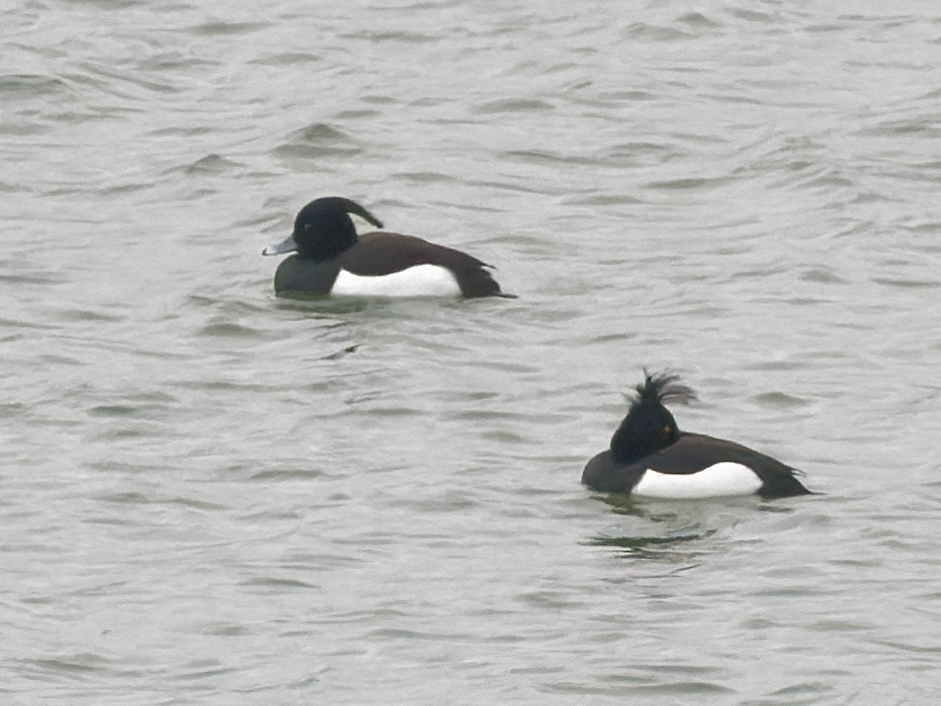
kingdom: Animalia
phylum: Chordata
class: Aves
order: Anseriformes
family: Anatidae
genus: Aythya
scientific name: Aythya fuligula
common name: Tufted duck
